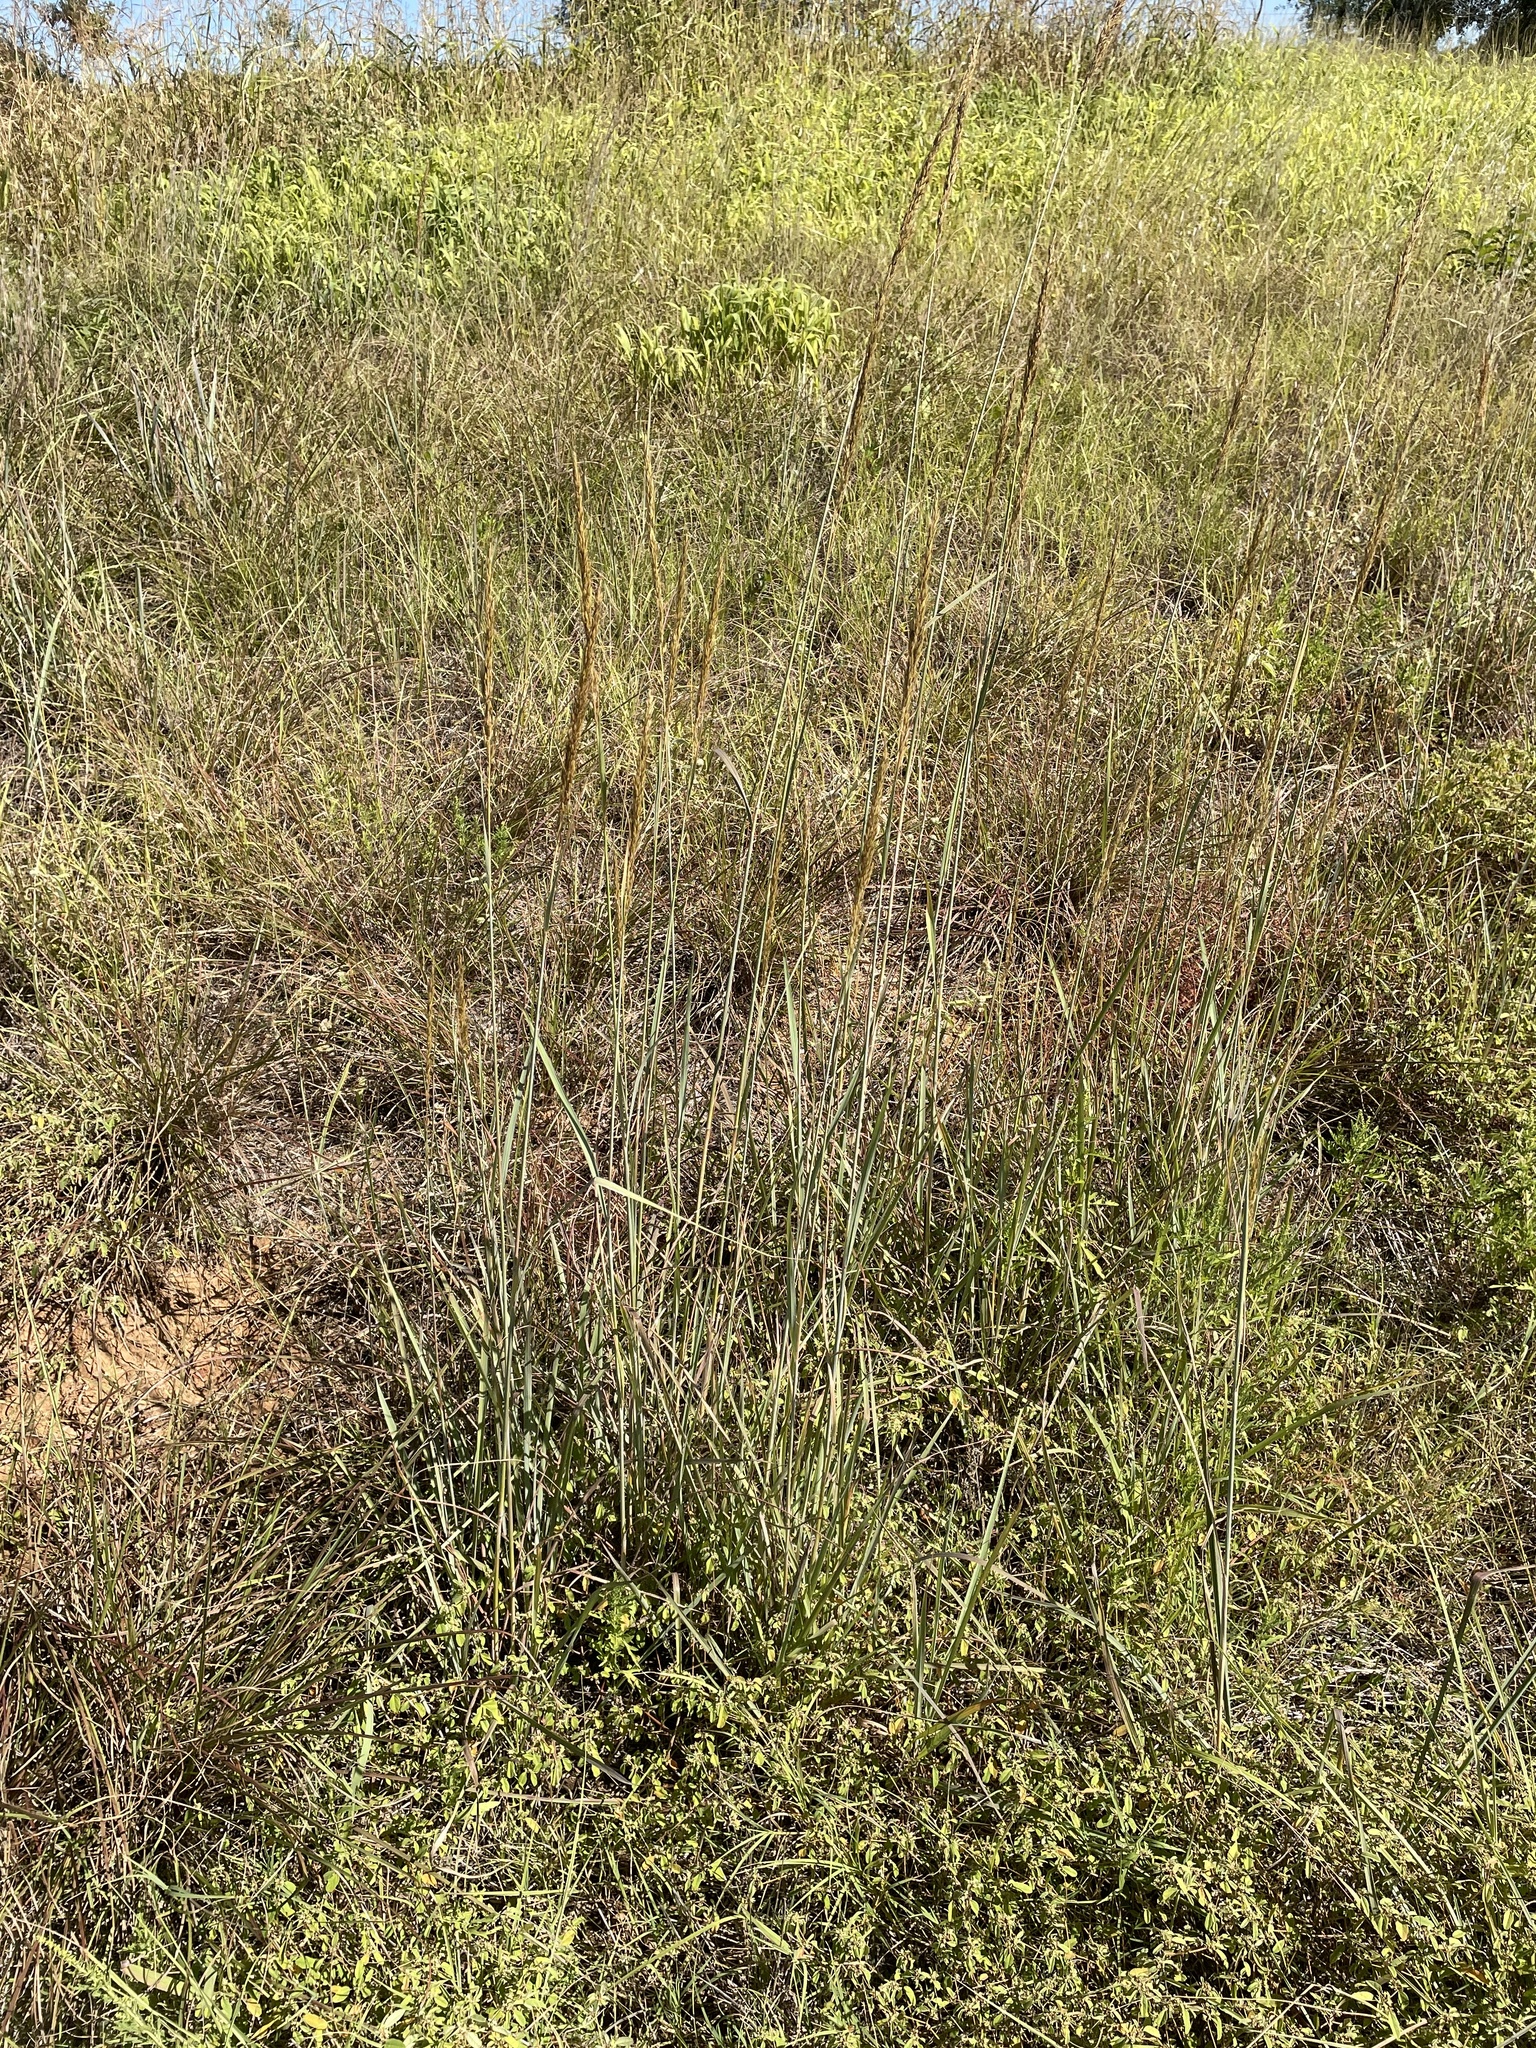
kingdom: Plantae
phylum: Tracheophyta
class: Liliopsida
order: Poales
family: Poaceae
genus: Sorghastrum
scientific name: Sorghastrum nutans
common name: Indian grass
